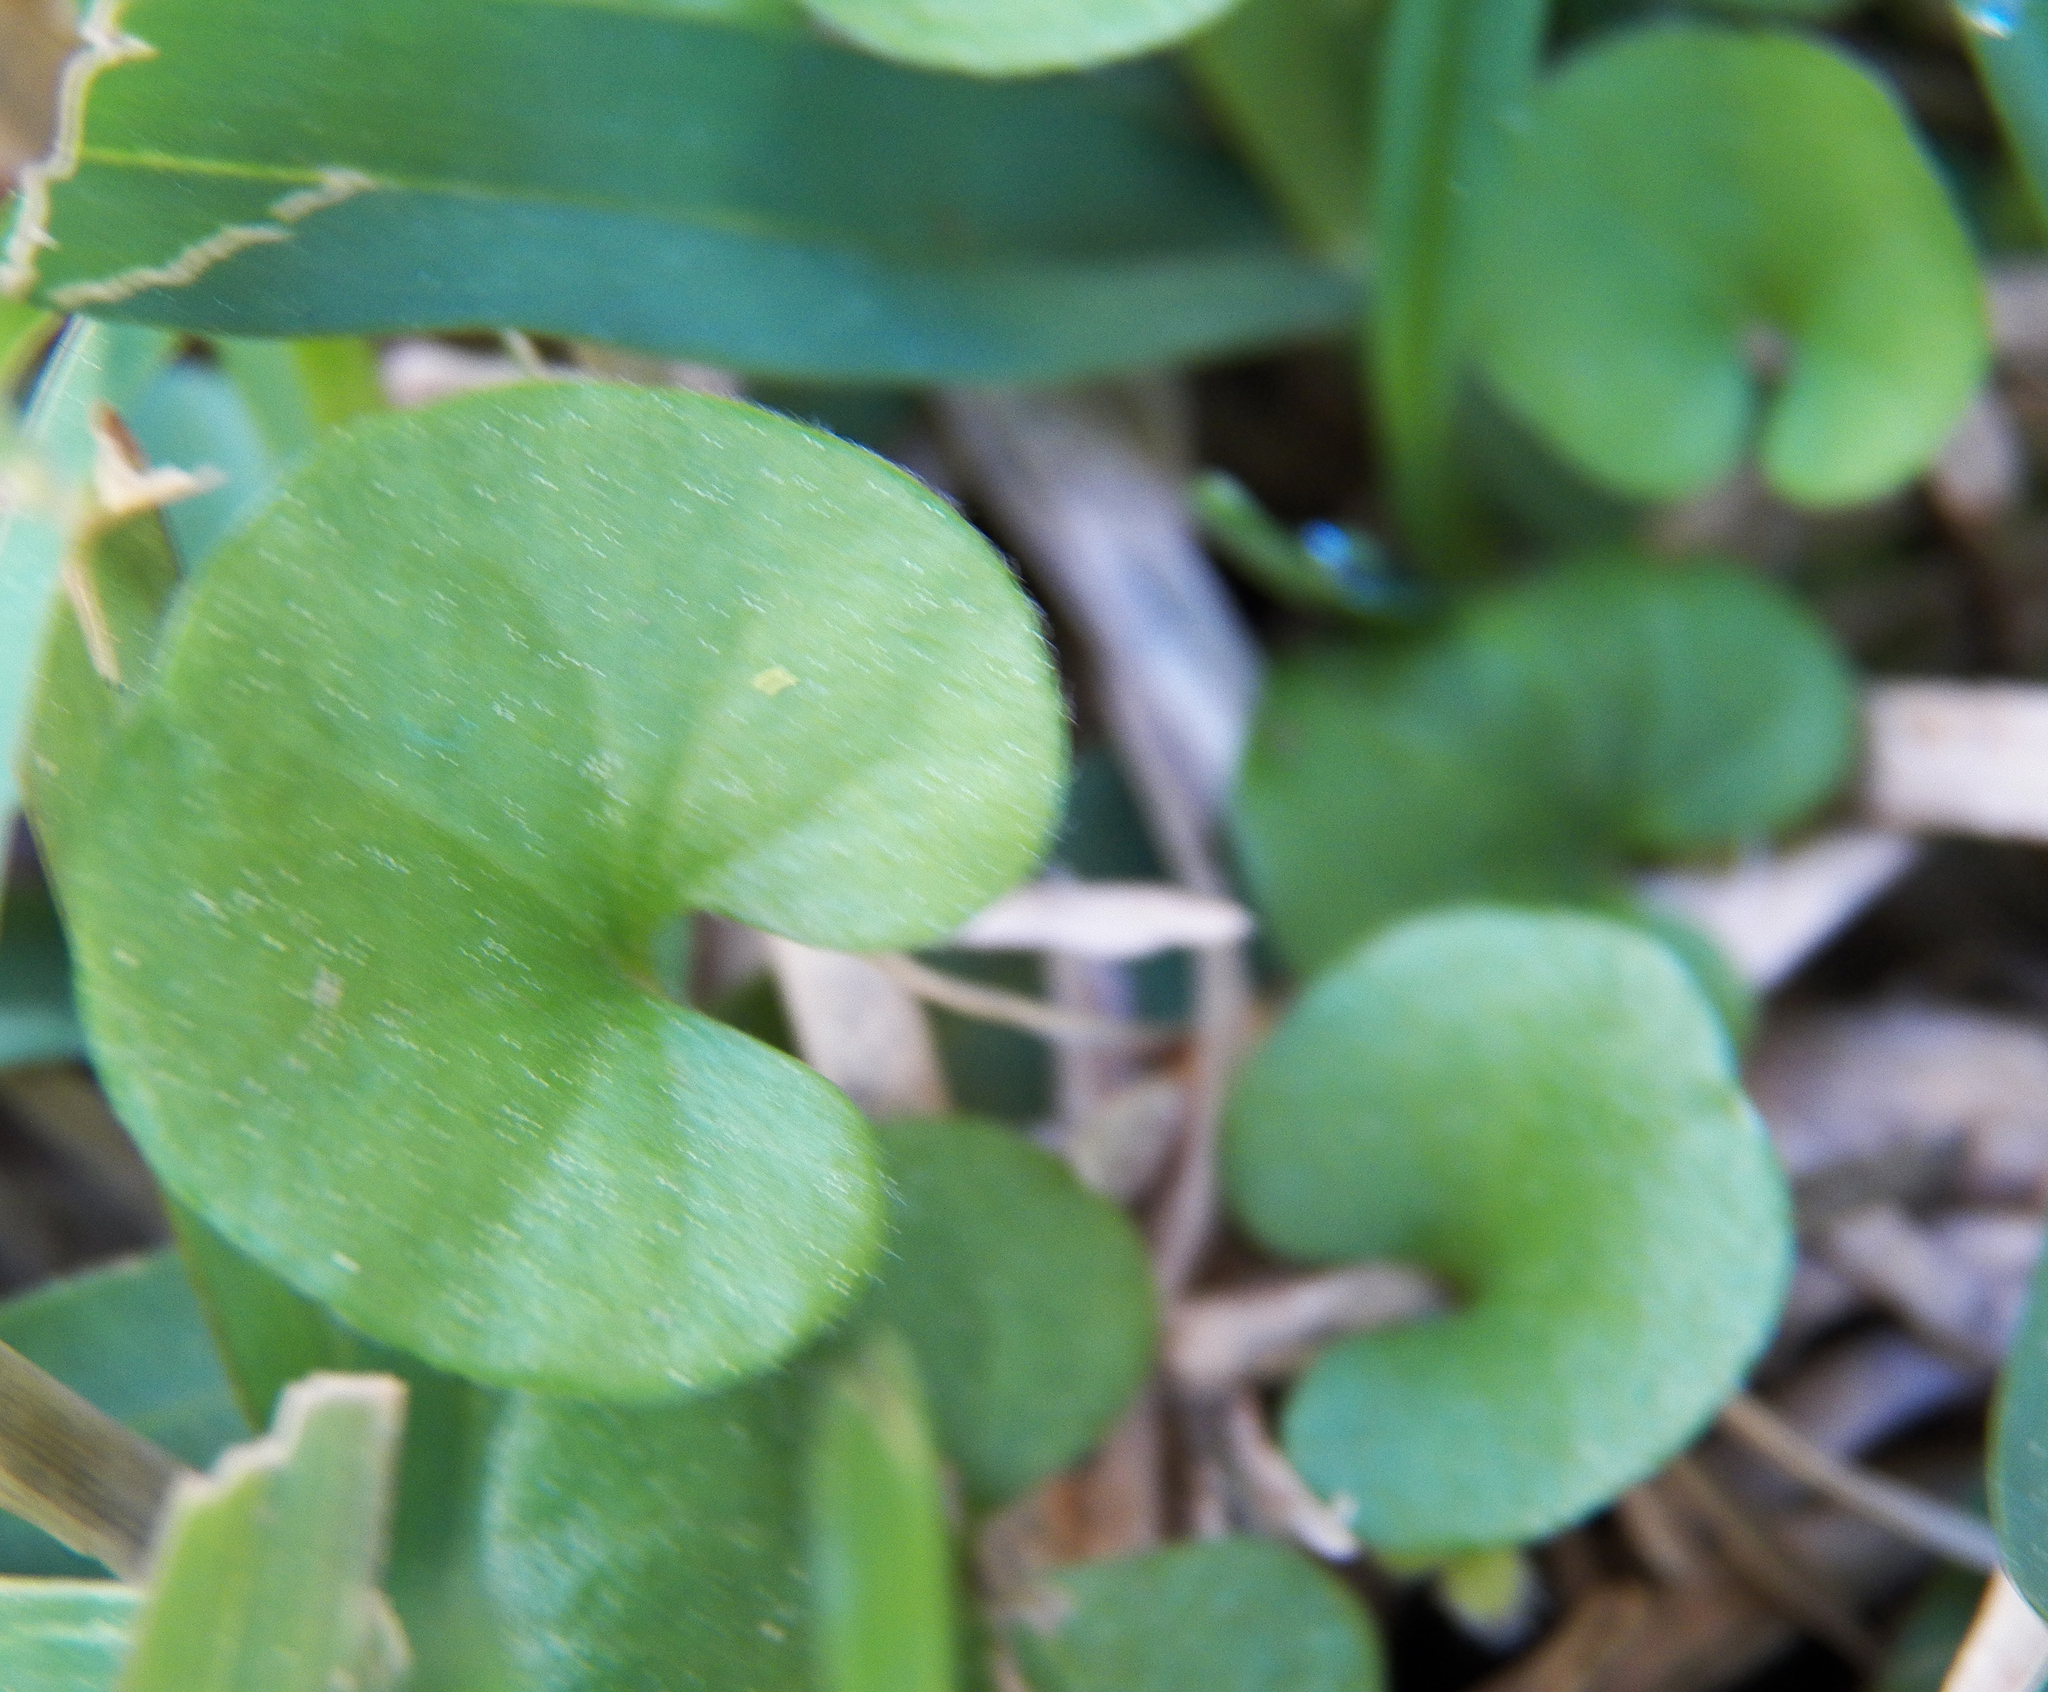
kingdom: Plantae
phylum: Tracheophyta
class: Magnoliopsida
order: Solanales
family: Convolvulaceae
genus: Dichondra
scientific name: Dichondra carolinensis
